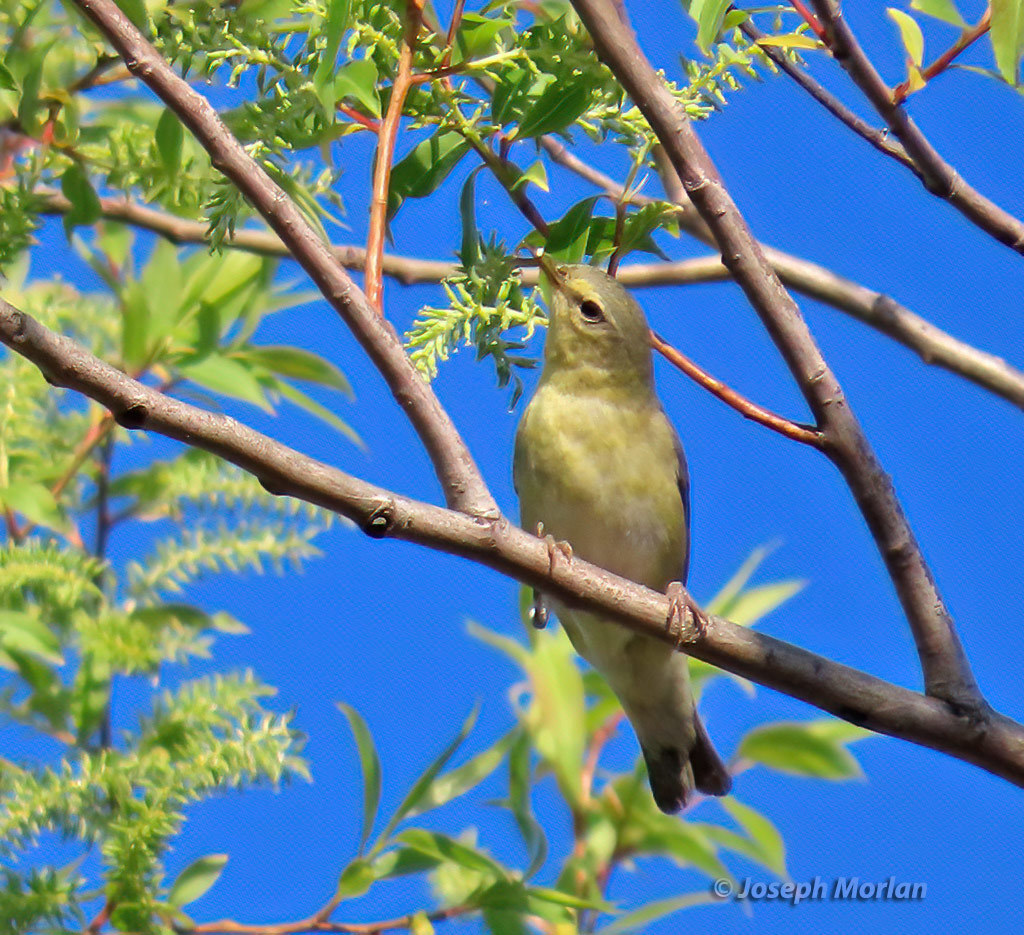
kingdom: Animalia
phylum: Chordata
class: Aves
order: Passeriformes
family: Parulidae
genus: Leiothlypis
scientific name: Leiothlypis peregrina
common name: Tennessee warbler
